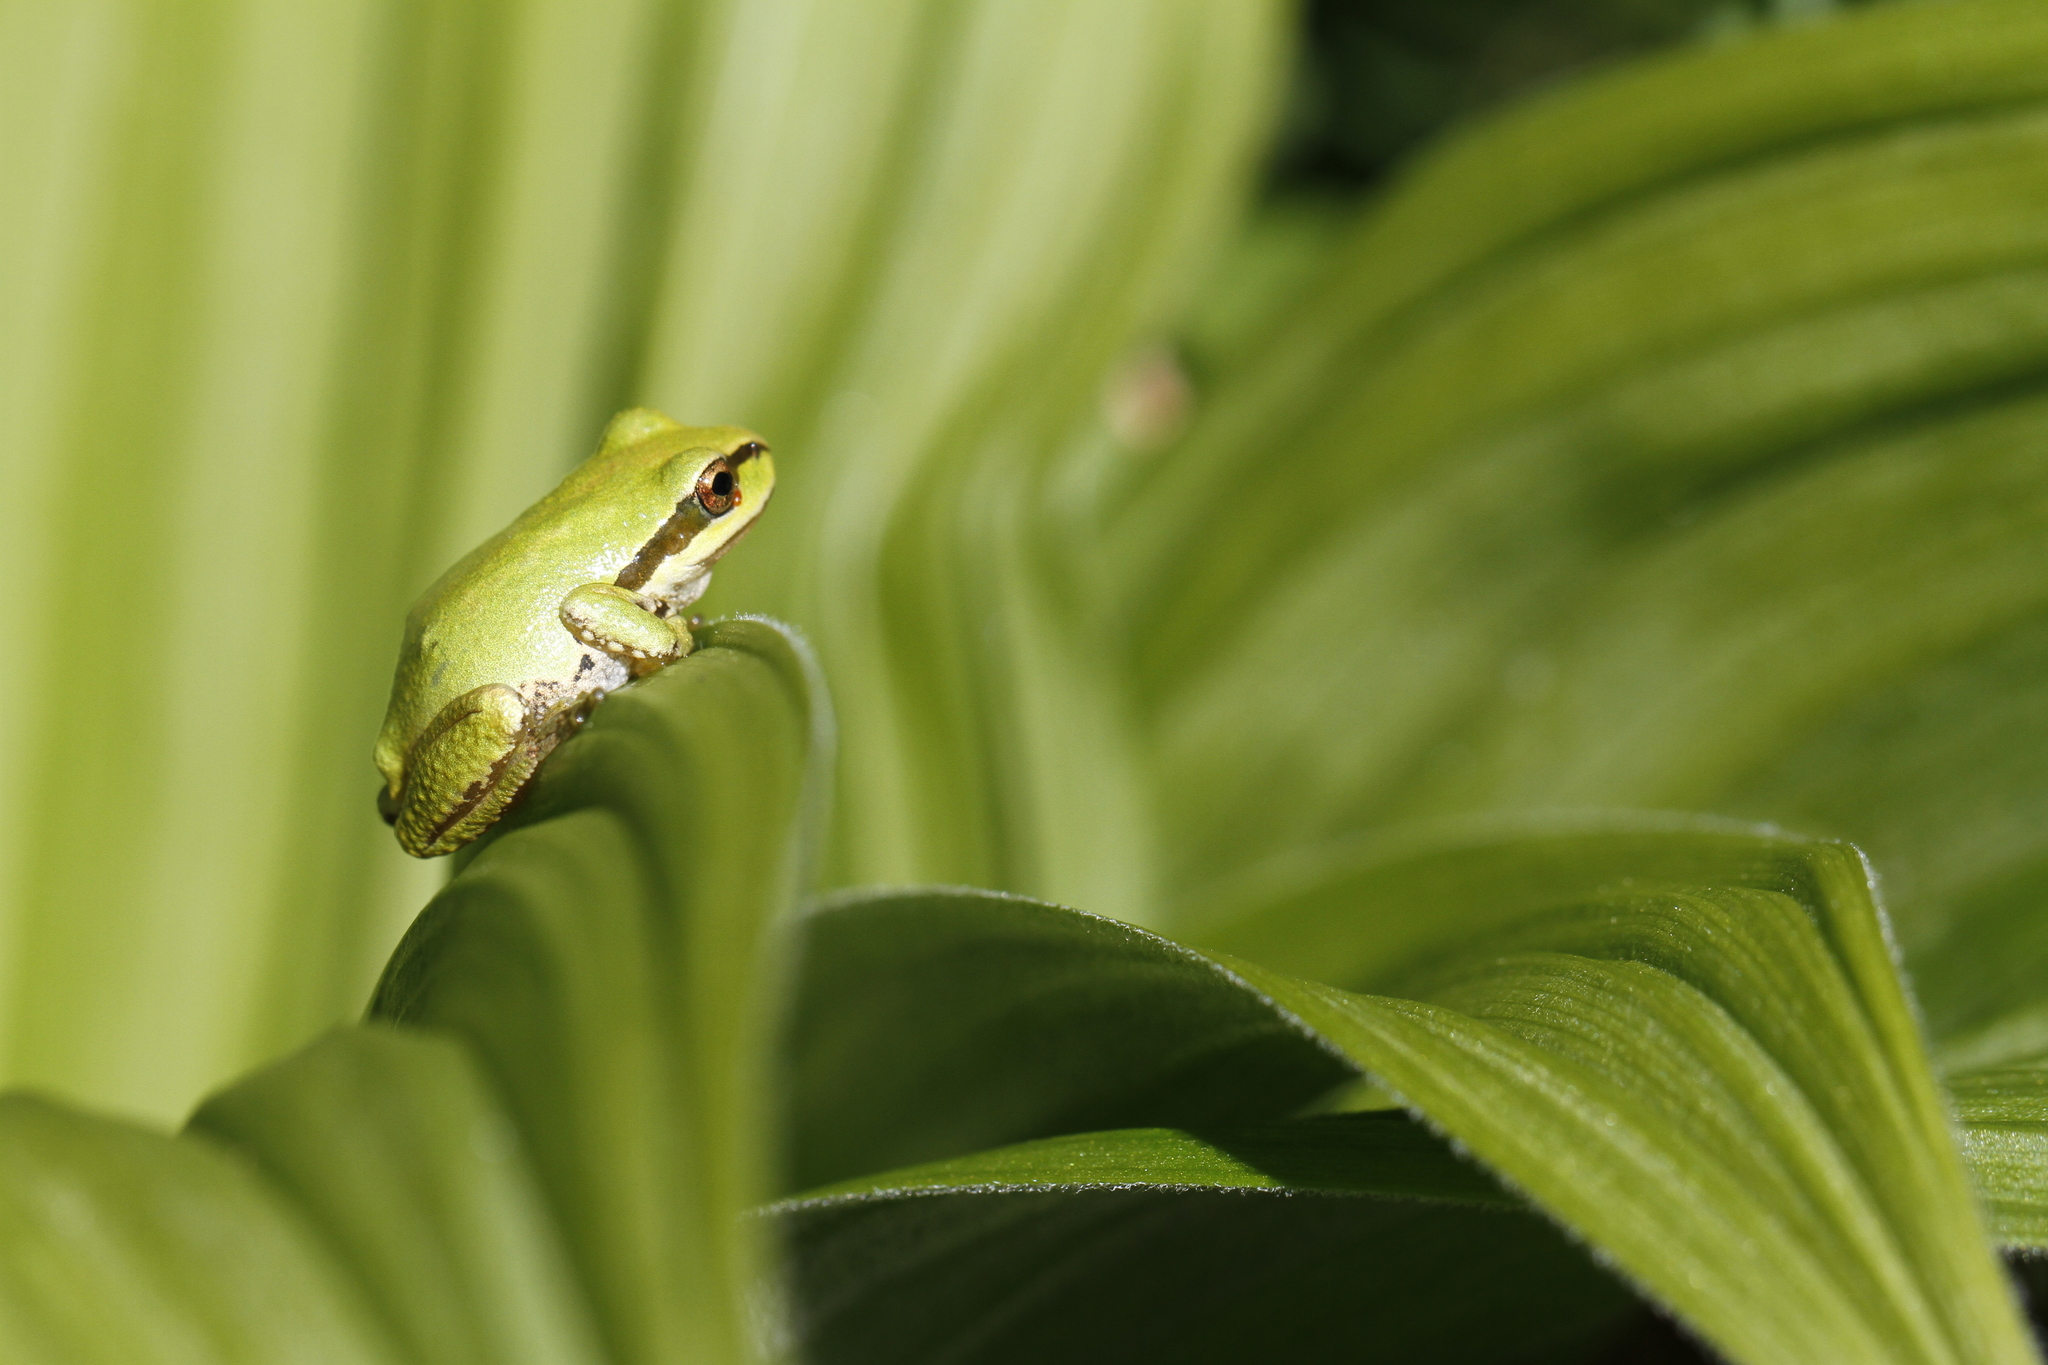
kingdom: Animalia
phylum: Chordata
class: Amphibia
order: Anura
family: Hylidae
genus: Pseudacris
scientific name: Pseudacris regilla
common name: Pacific chorus frog
